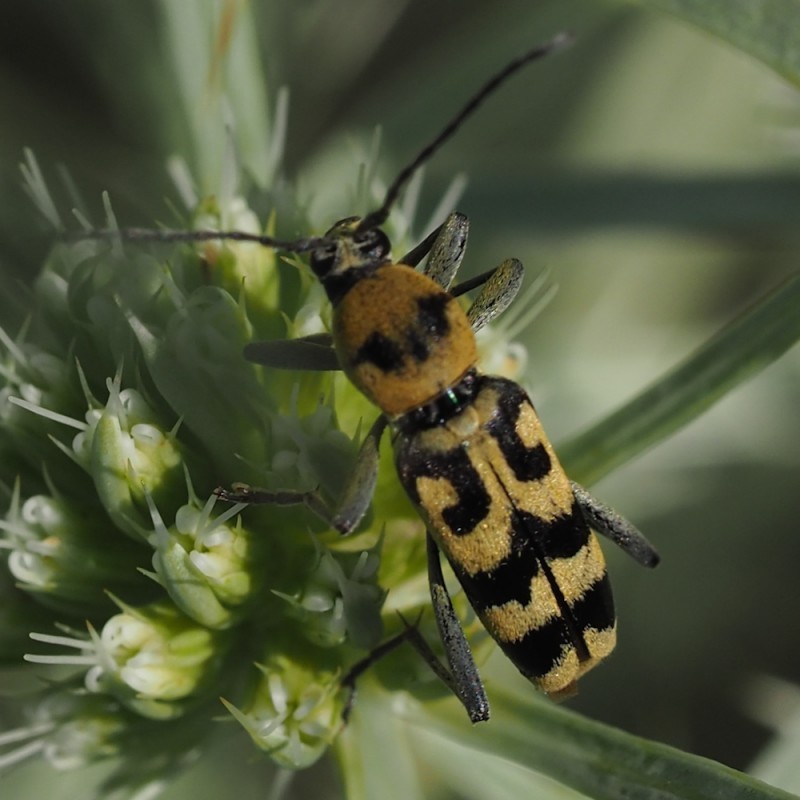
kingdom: Animalia
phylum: Arthropoda
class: Insecta
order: Coleoptera
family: Cerambycidae
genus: Chlorophorus
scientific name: Chlorophorus varius
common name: Grape wood borer
